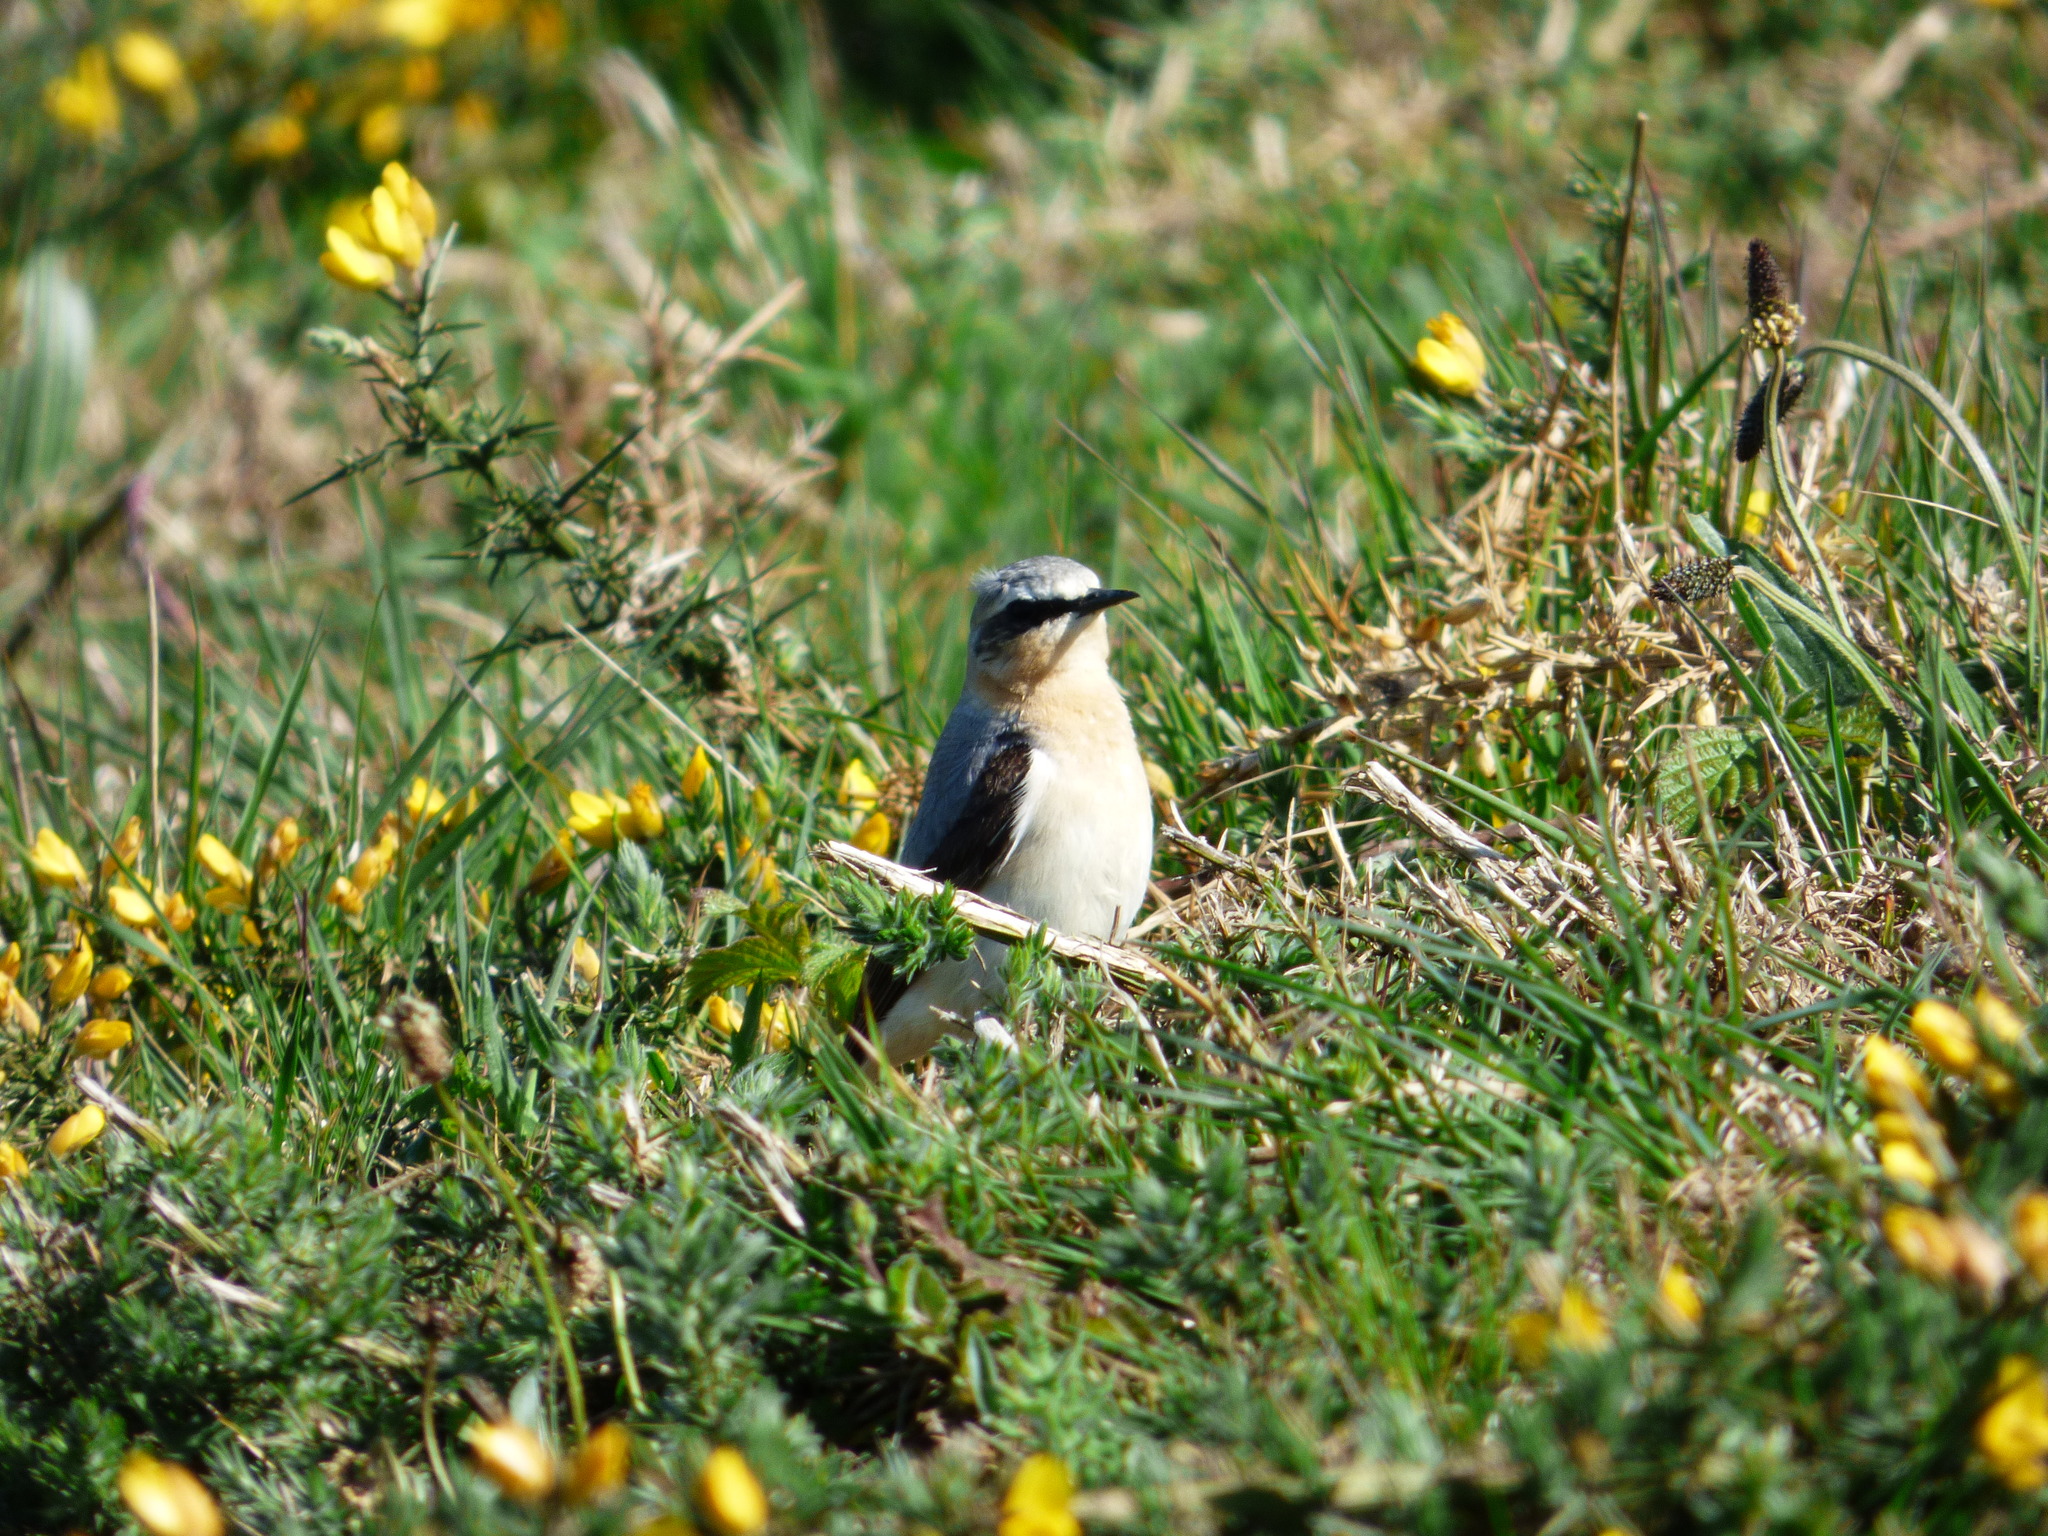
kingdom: Animalia
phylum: Chordata
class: Aves
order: Passeriformes
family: Muscicapidae
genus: Oenanthe
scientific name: Oenanthe oenanthe
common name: Northern wheatear
